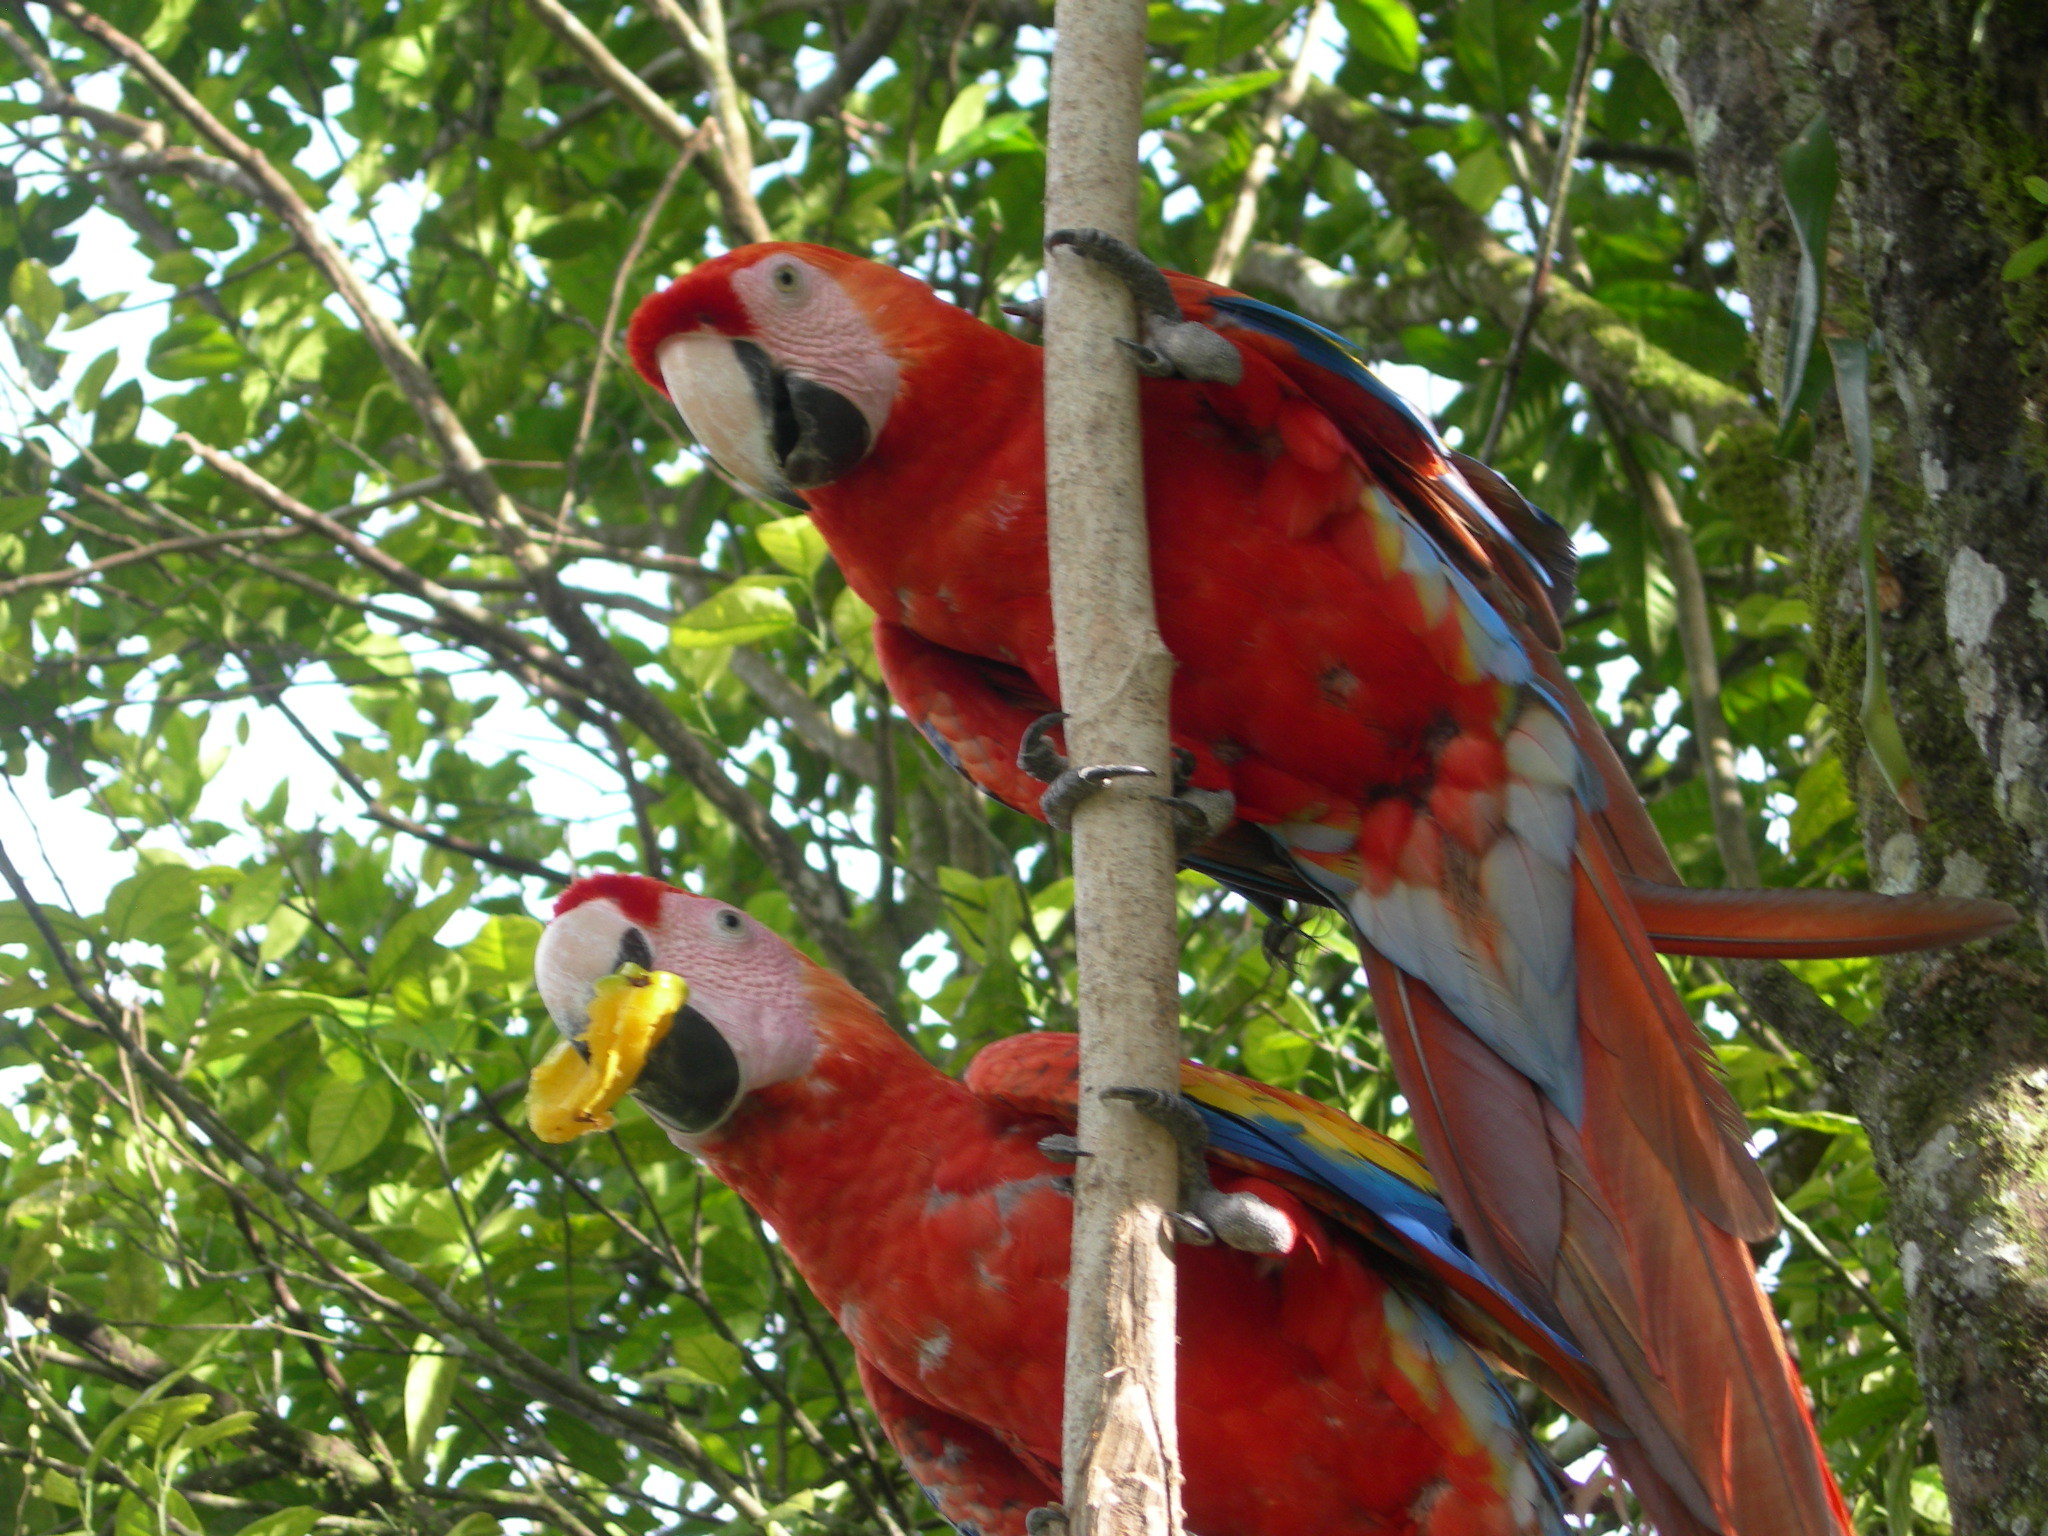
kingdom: Animalia
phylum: Chordata
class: Aves
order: Psittaciformes
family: Psittacidae
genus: Ara
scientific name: Ara macao
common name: Scarlet macaw
